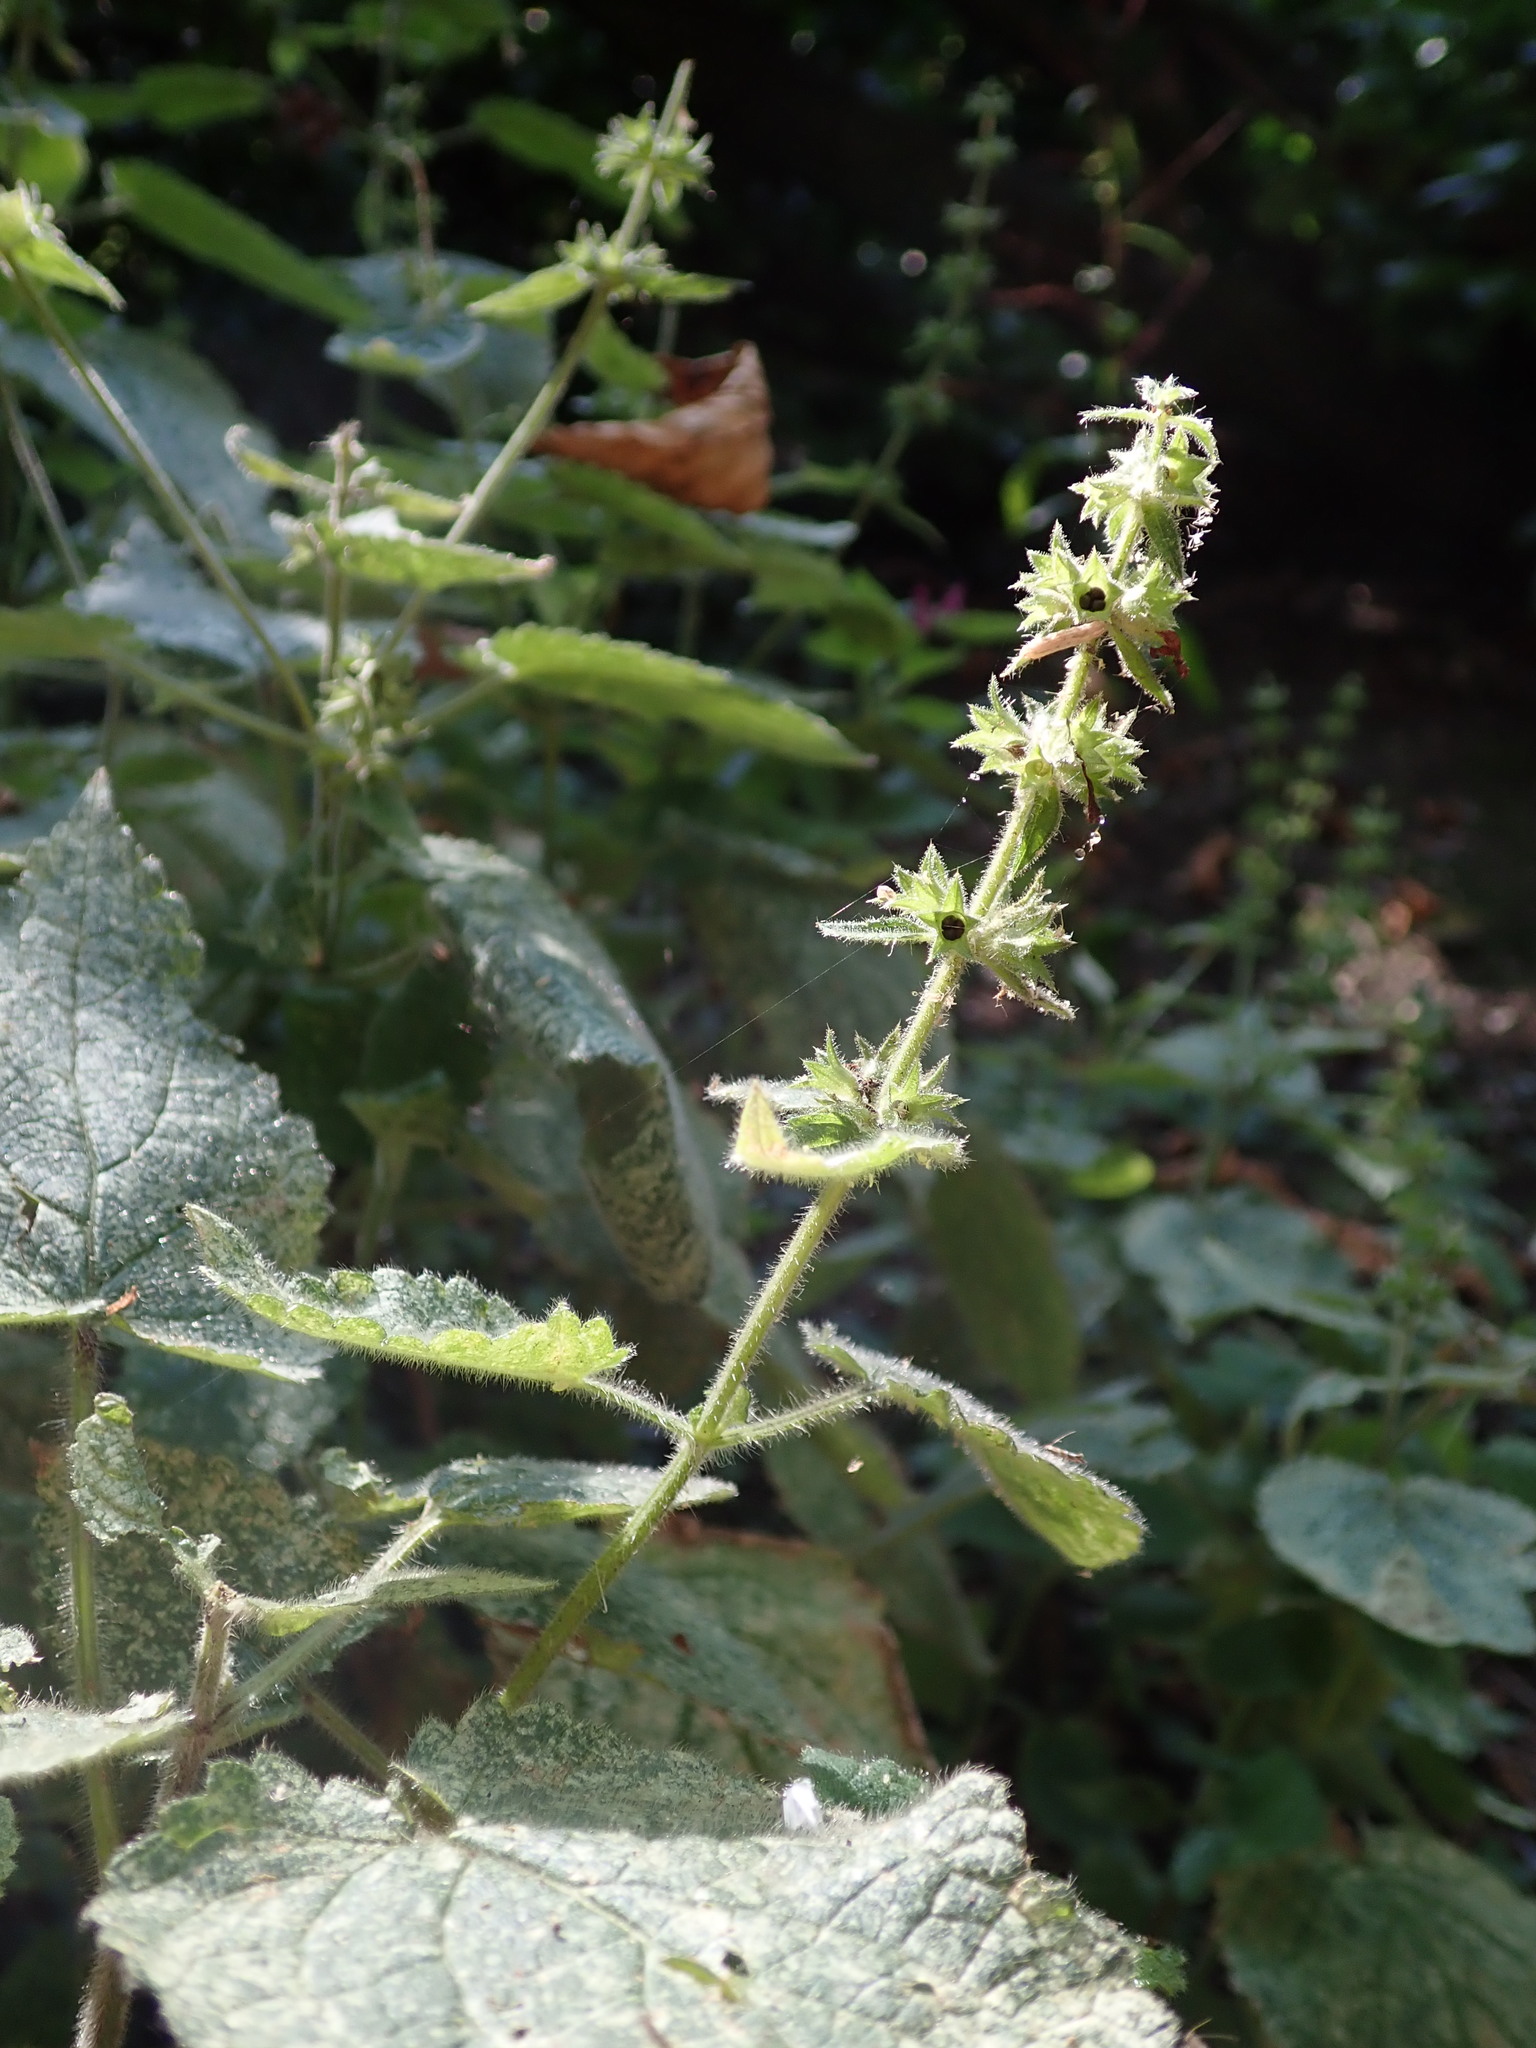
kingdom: Plantae
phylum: Tracheophyta
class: Magnoliopsida
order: Lamiales
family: Lamiaceae
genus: Stachys
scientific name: Stachys sylvatica
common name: Hedge woundwort
